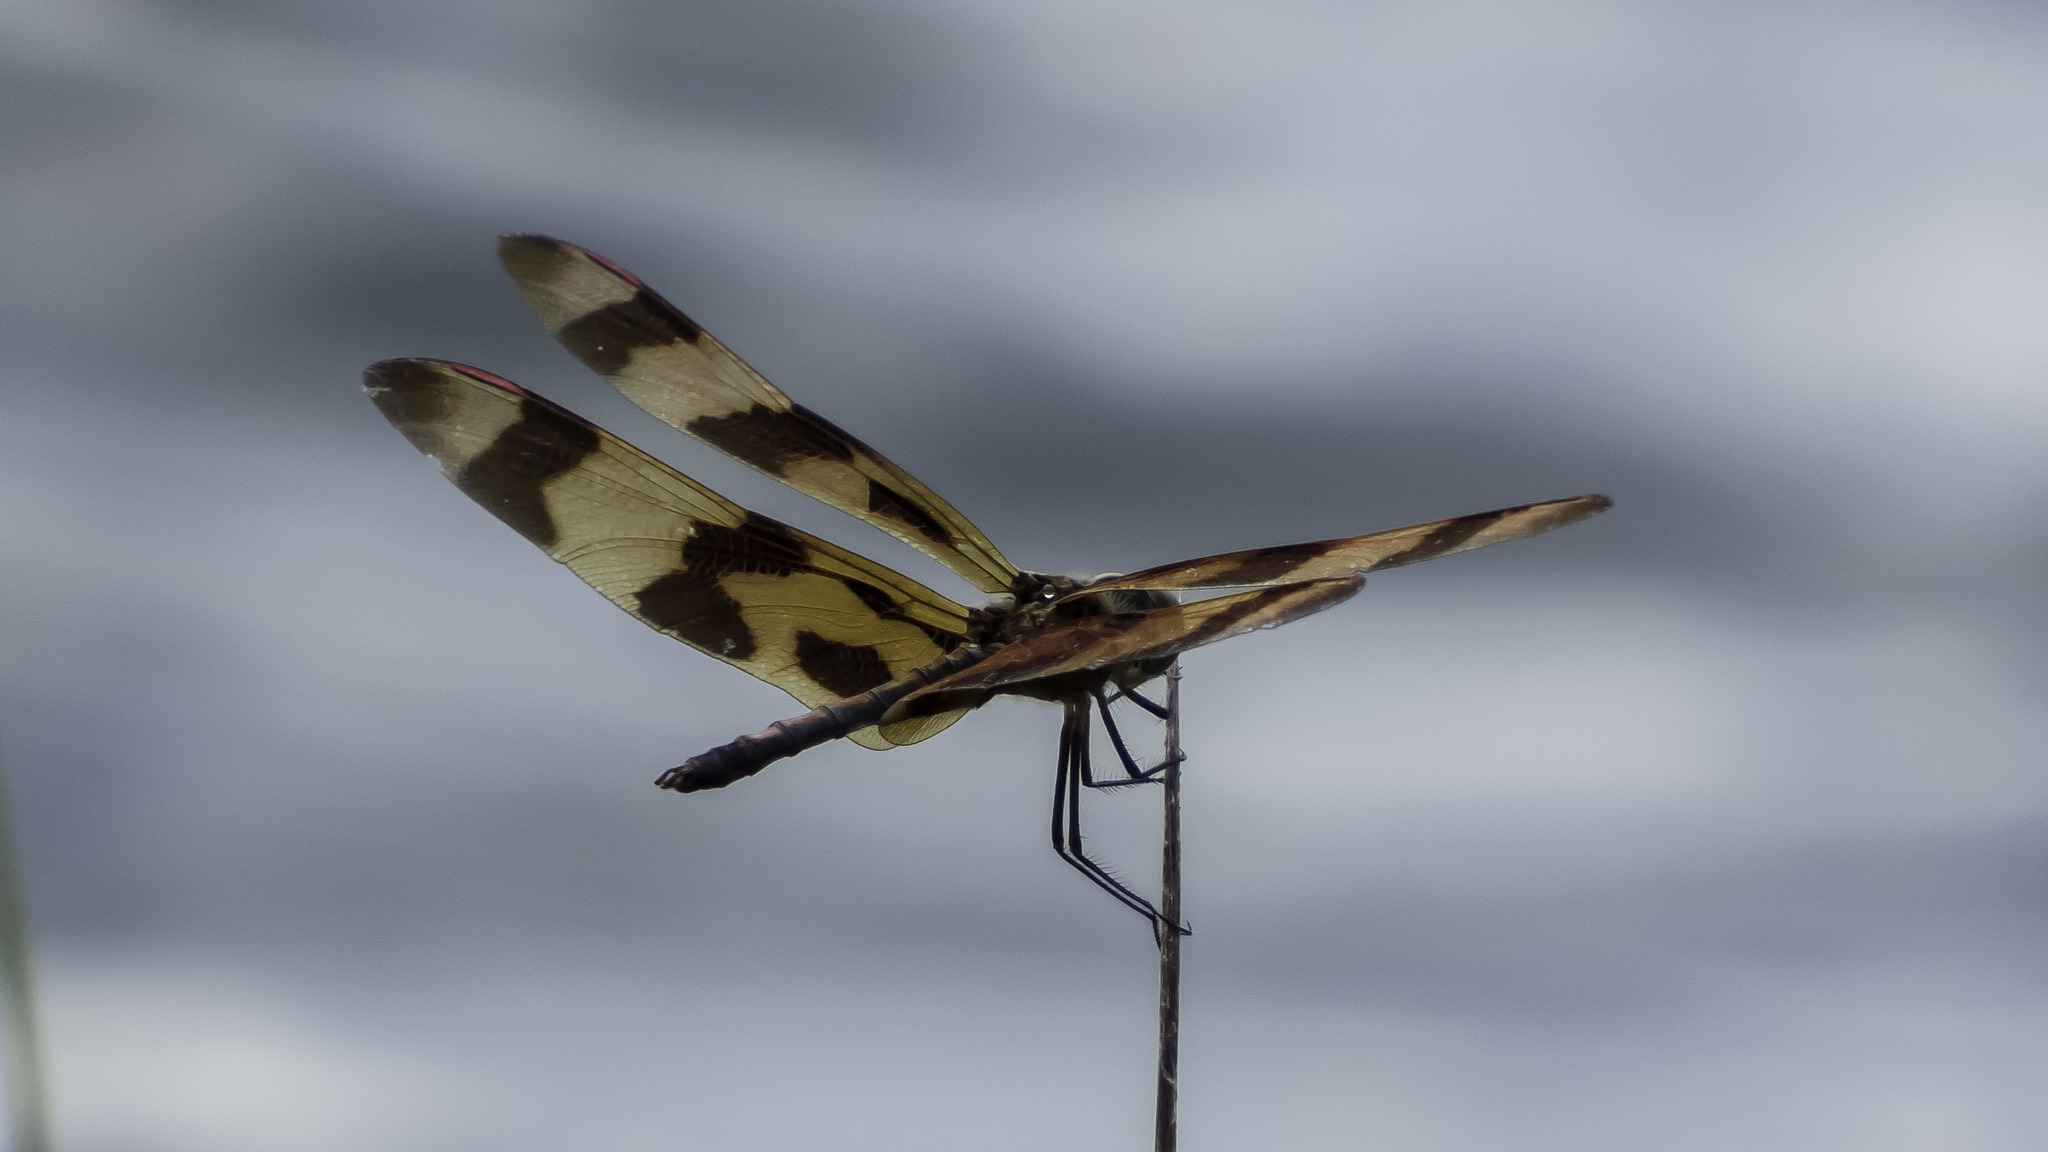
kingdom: Animalia
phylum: Arthropoda
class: Insecta
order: Odonata
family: Libellulidae
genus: Celithemis
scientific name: Celithemis eponina
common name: Halloween pennant
